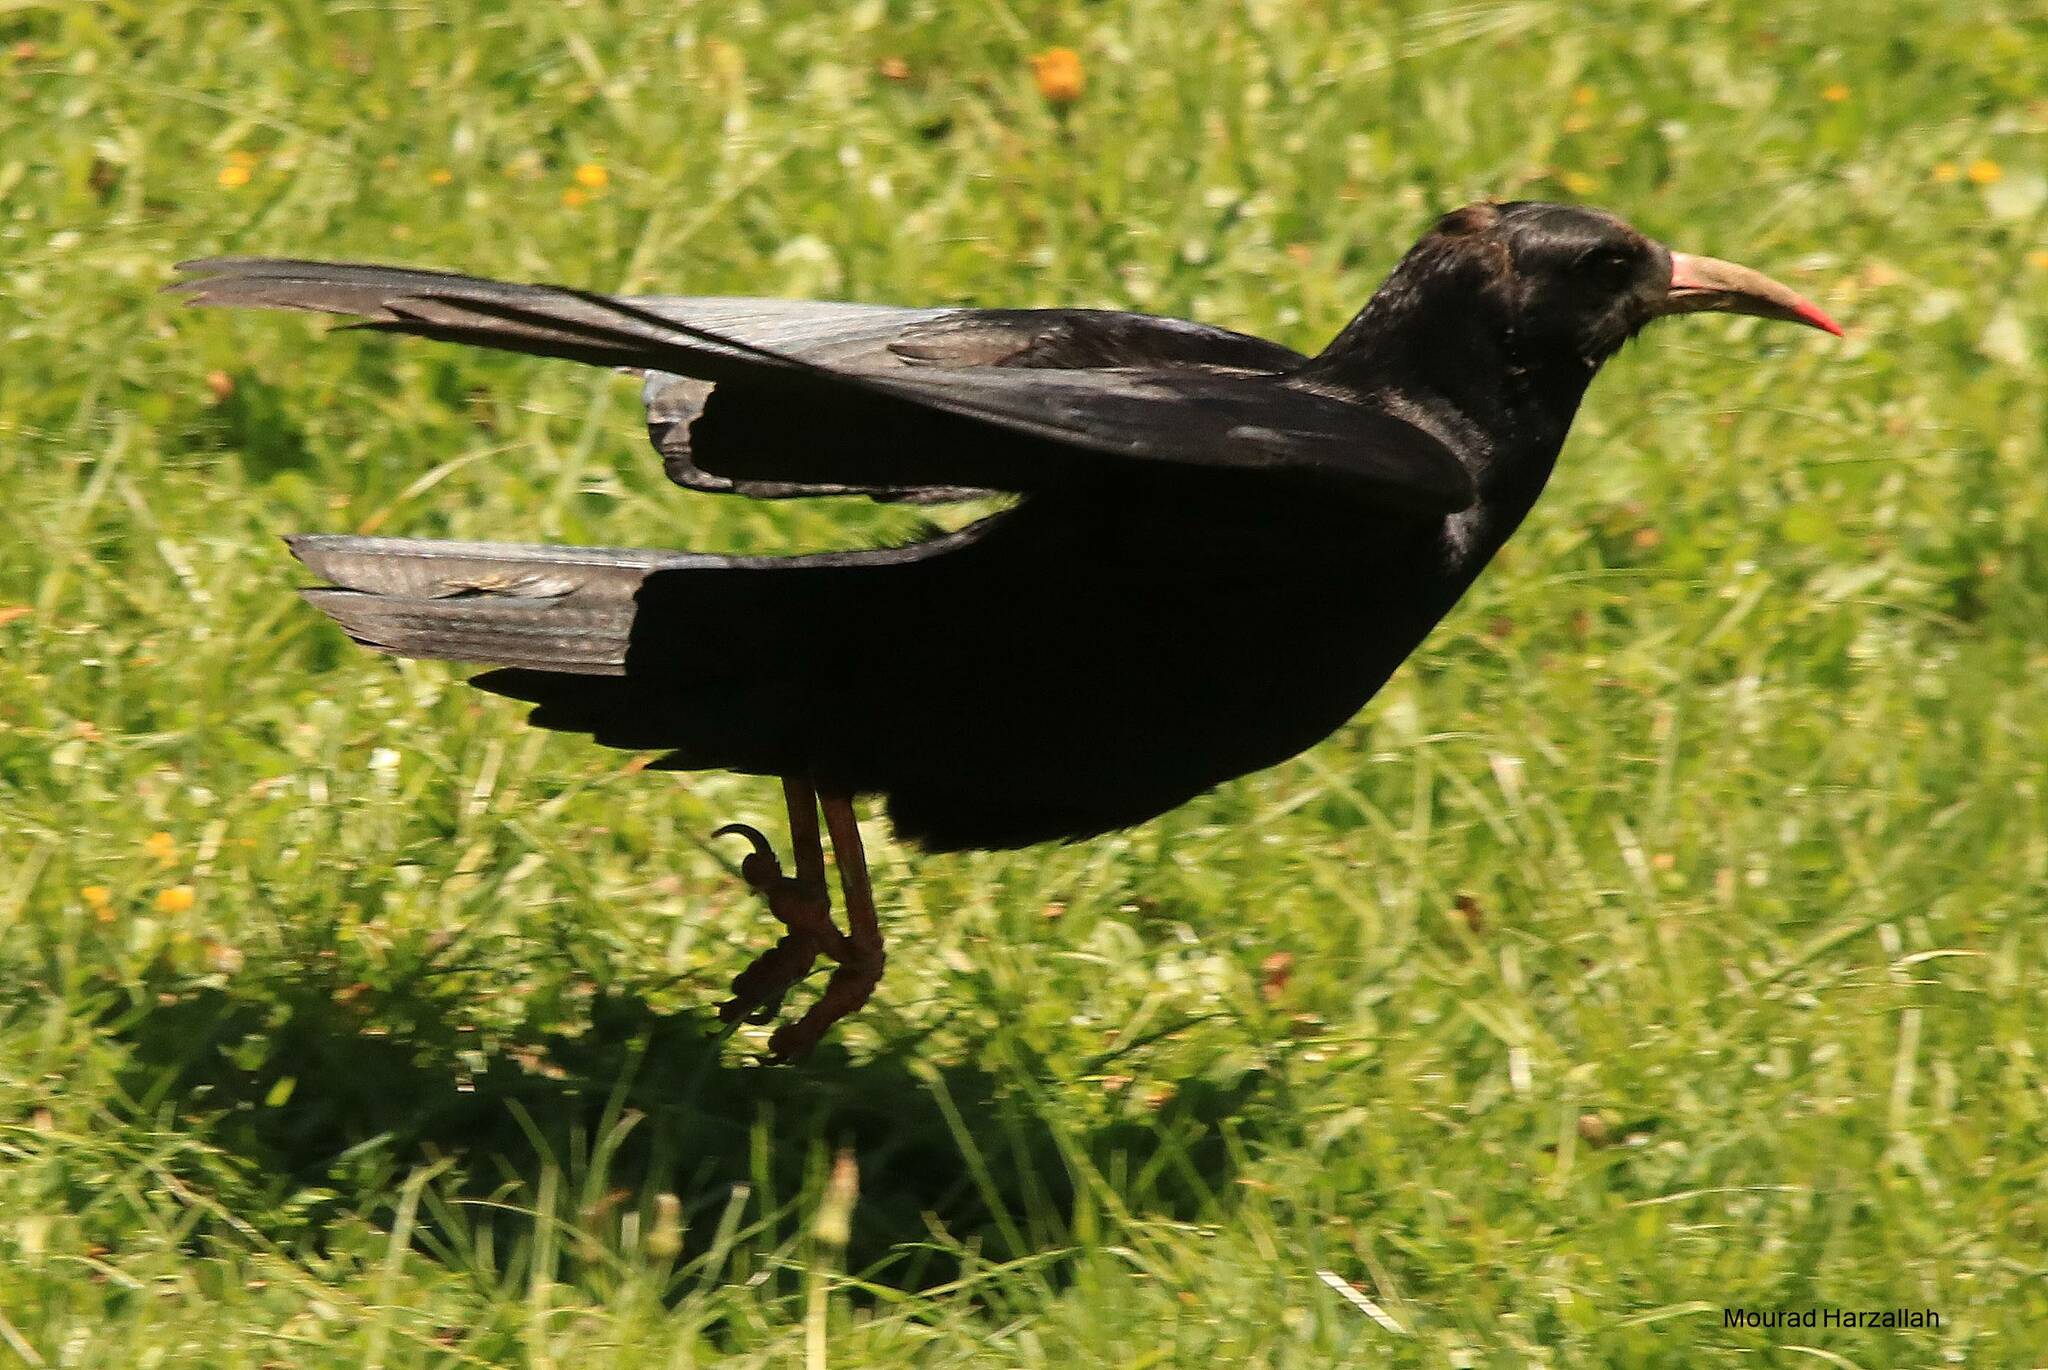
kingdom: Animalia
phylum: Chordata
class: Aves
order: Passeriformes
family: Corvidae
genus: Pyrrhocorax
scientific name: Pyrrhocorax pyrrhocorax
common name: Red-billed chough
